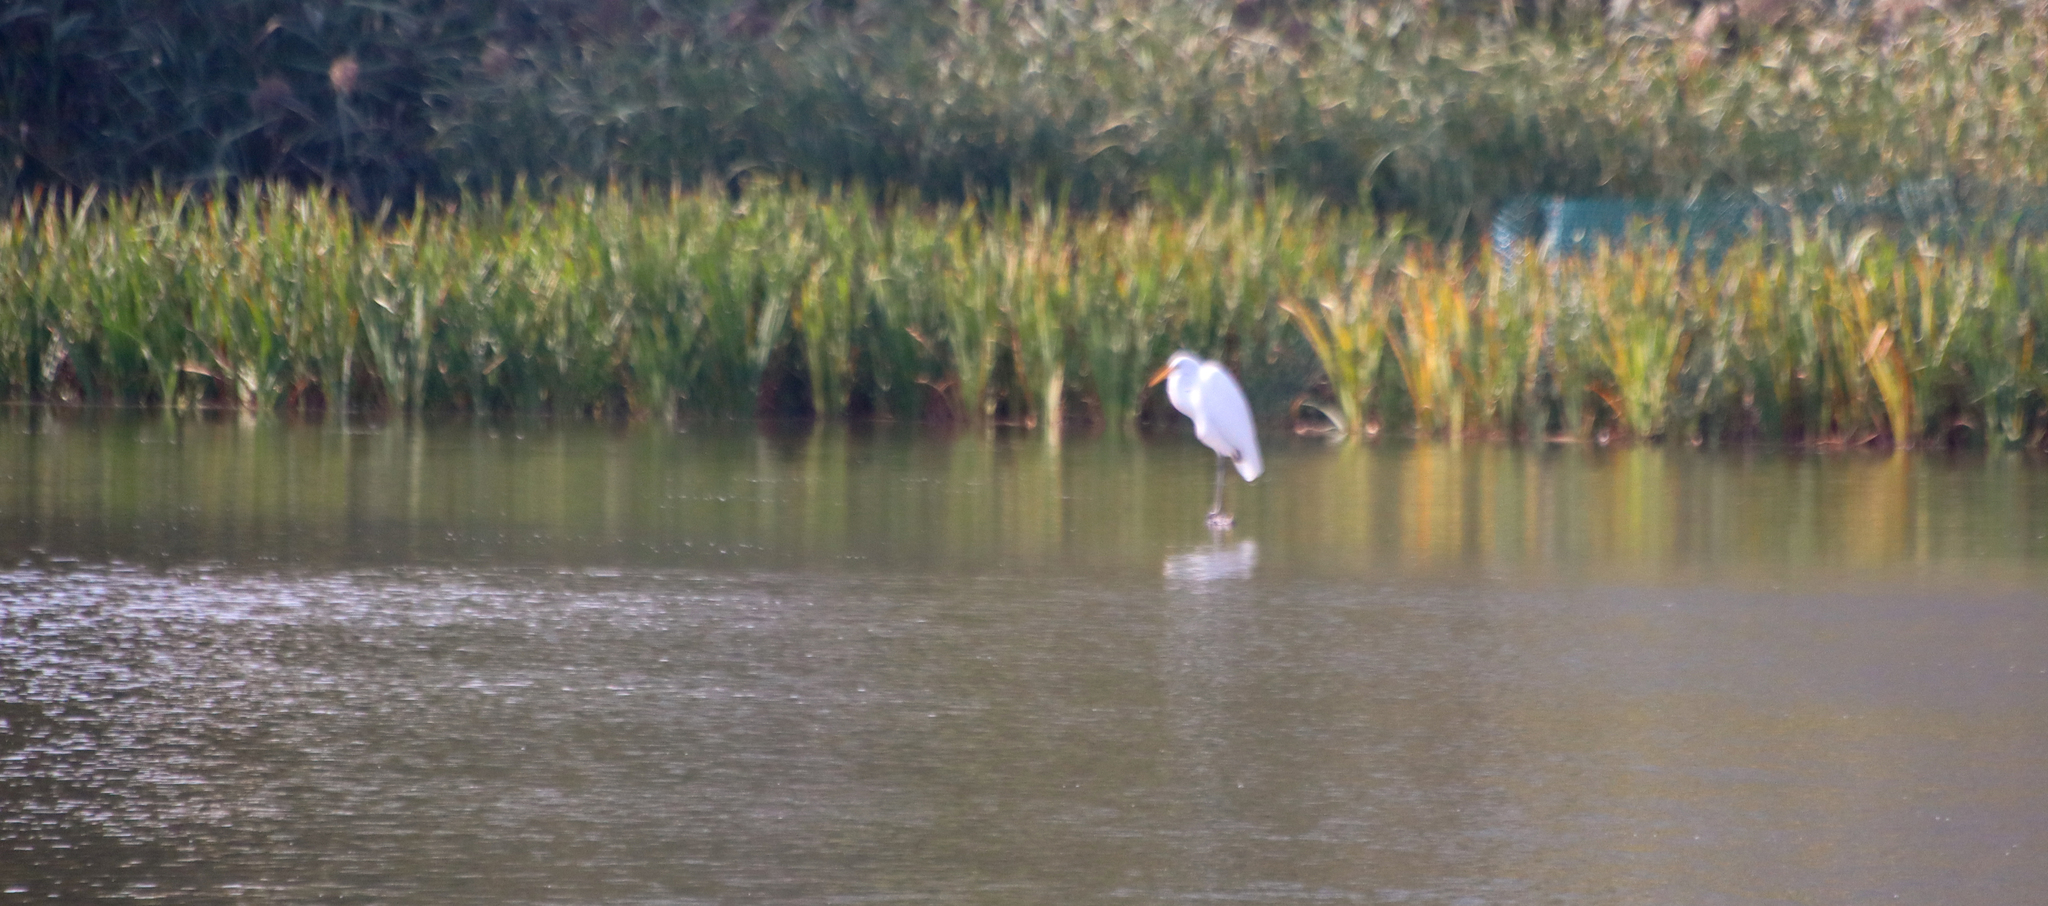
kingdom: Animalia
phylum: Chordata
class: Aves
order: Pelecaniformes
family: Ardeidae
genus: Ardea
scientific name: Ardea alba
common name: Great egret
